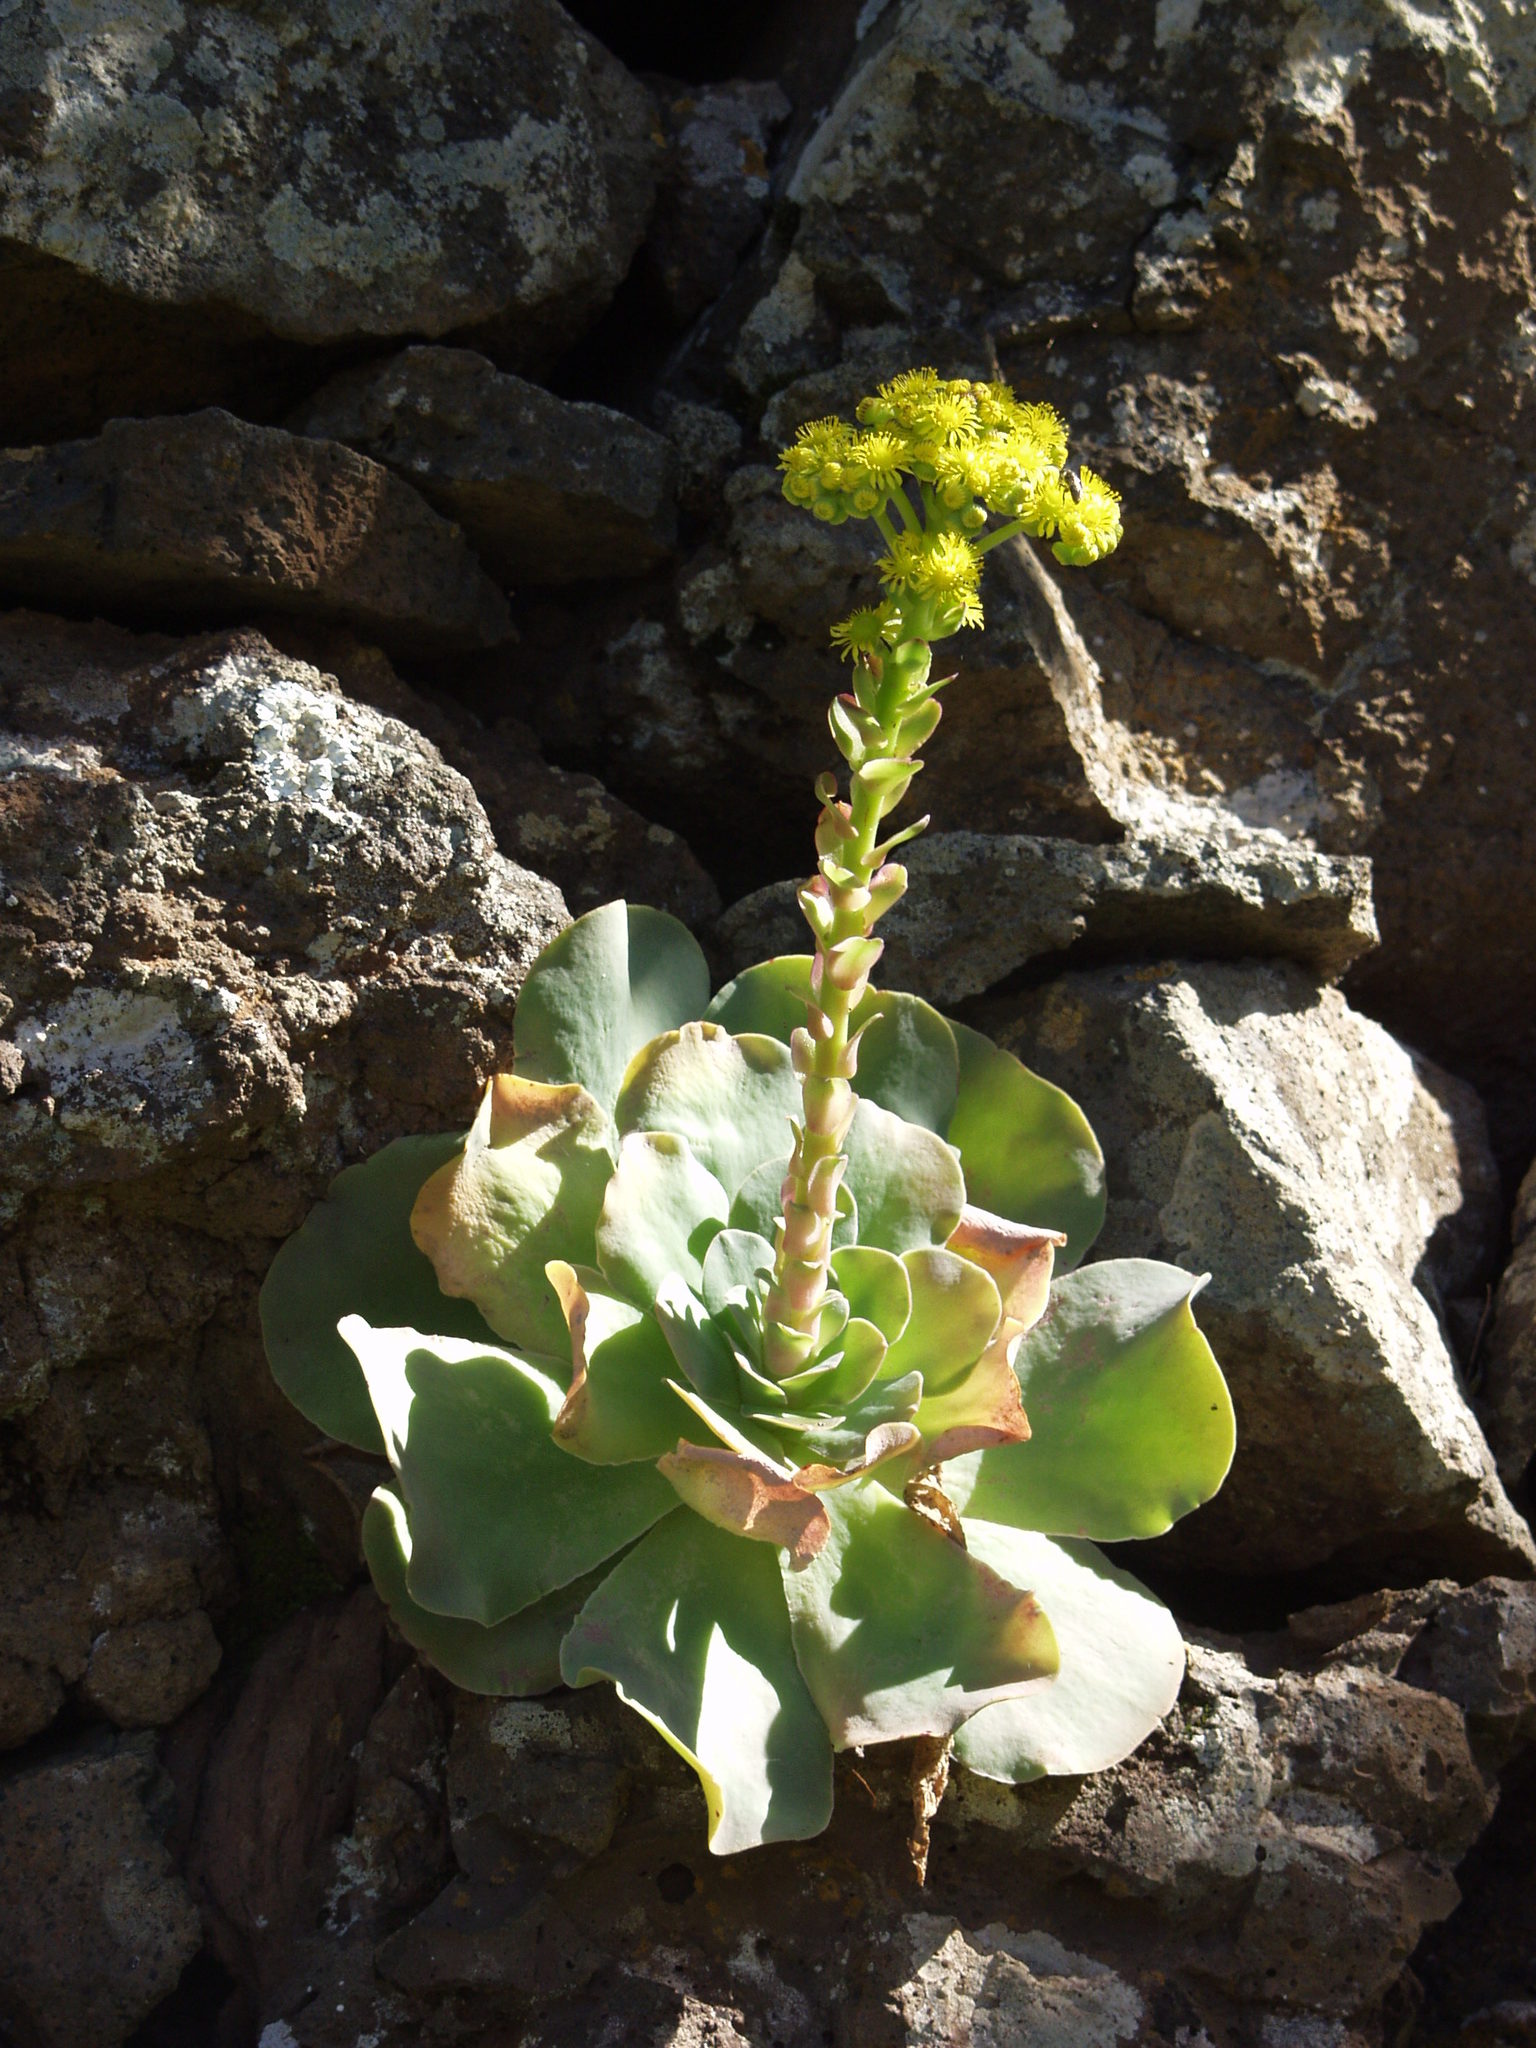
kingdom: Plantae
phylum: Tracheophyta
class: Magnoliopsida
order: Saxifragales
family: Crassulaceae
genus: Aeonium
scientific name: Aeonium diplocyclum
